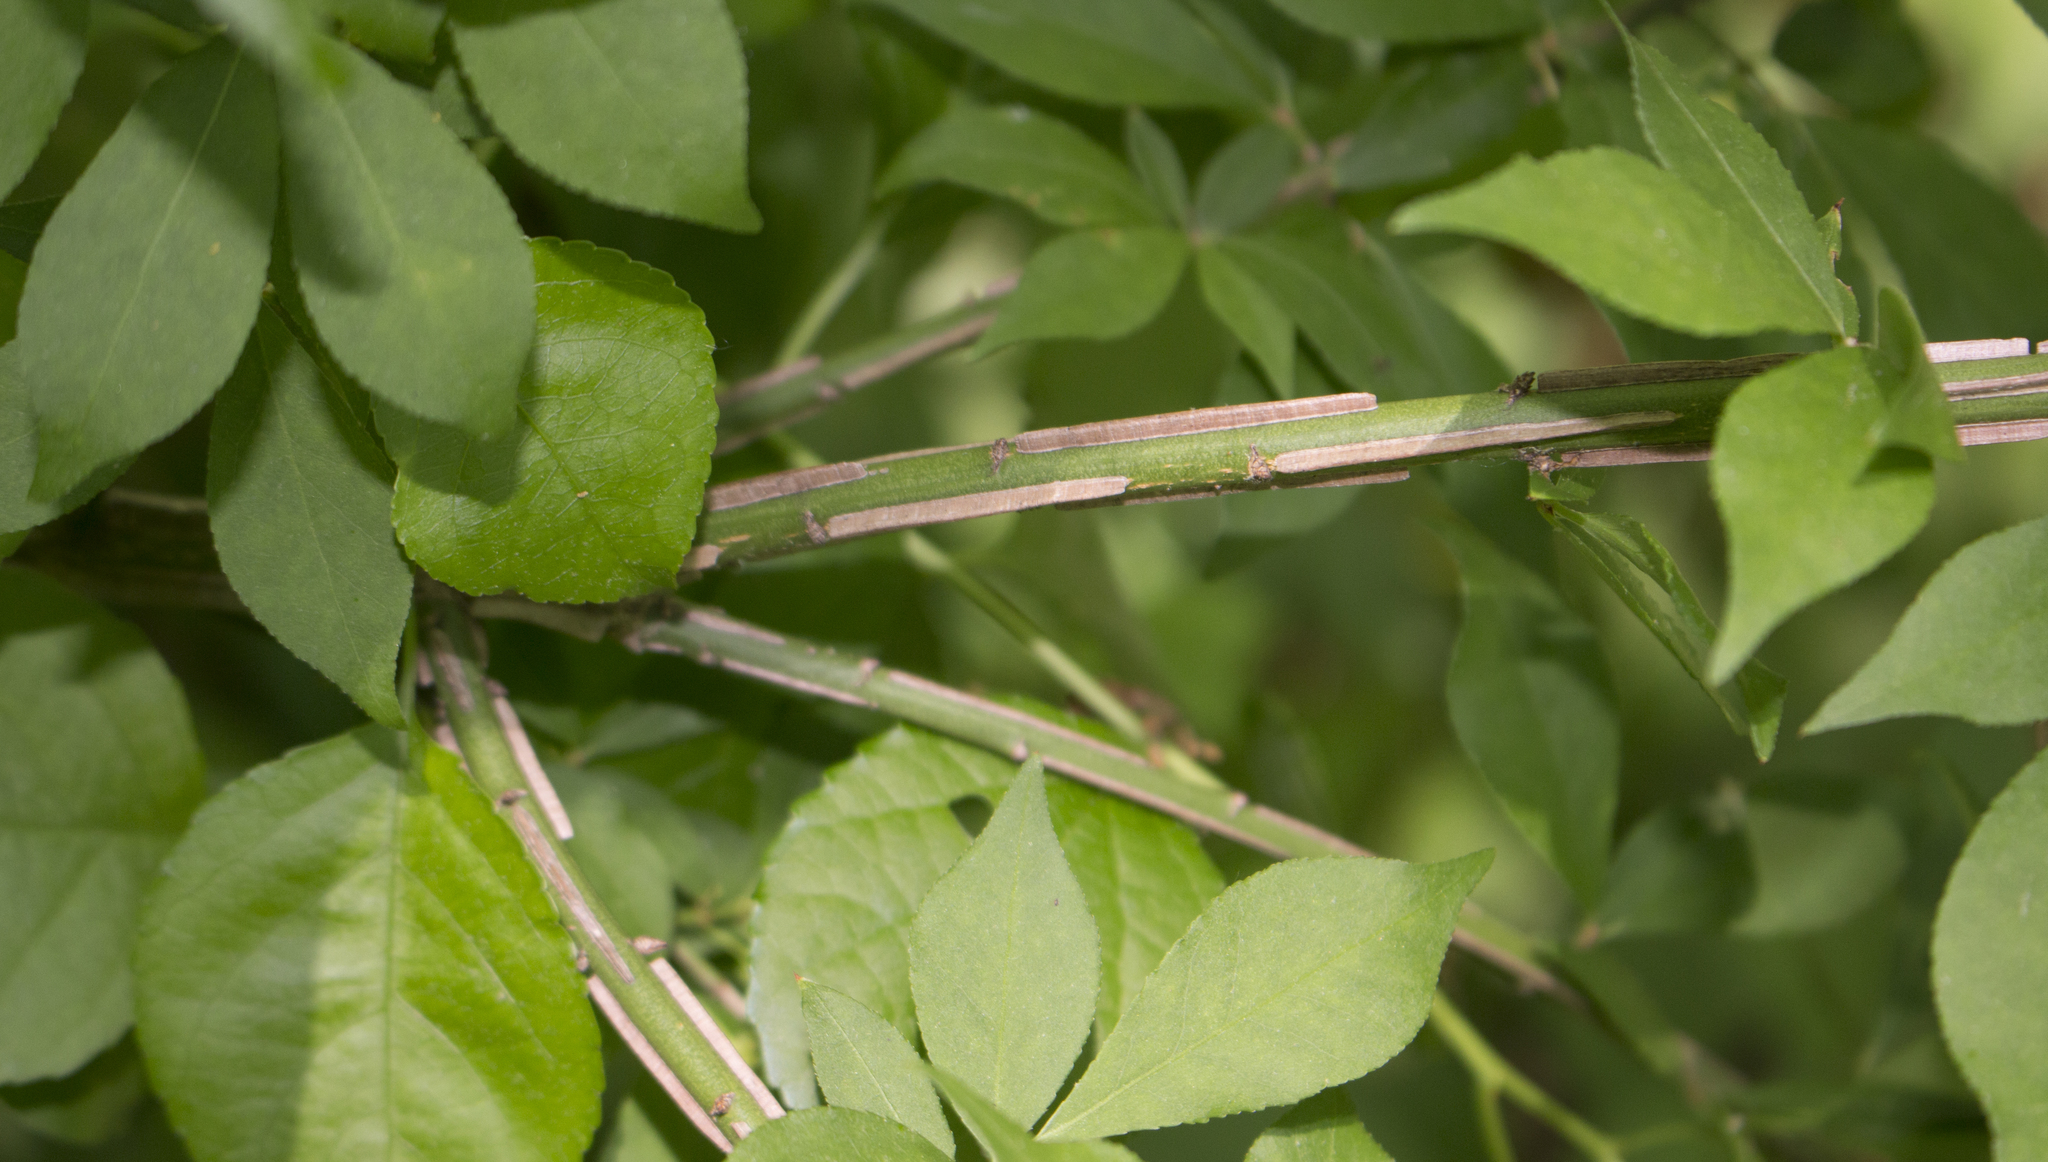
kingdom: Plantae
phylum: Tracheophyta
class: Magnoliopsida
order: Celastrales
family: Celastraceae
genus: Euonymus
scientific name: Euonymus alatus
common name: Winged euonymus
